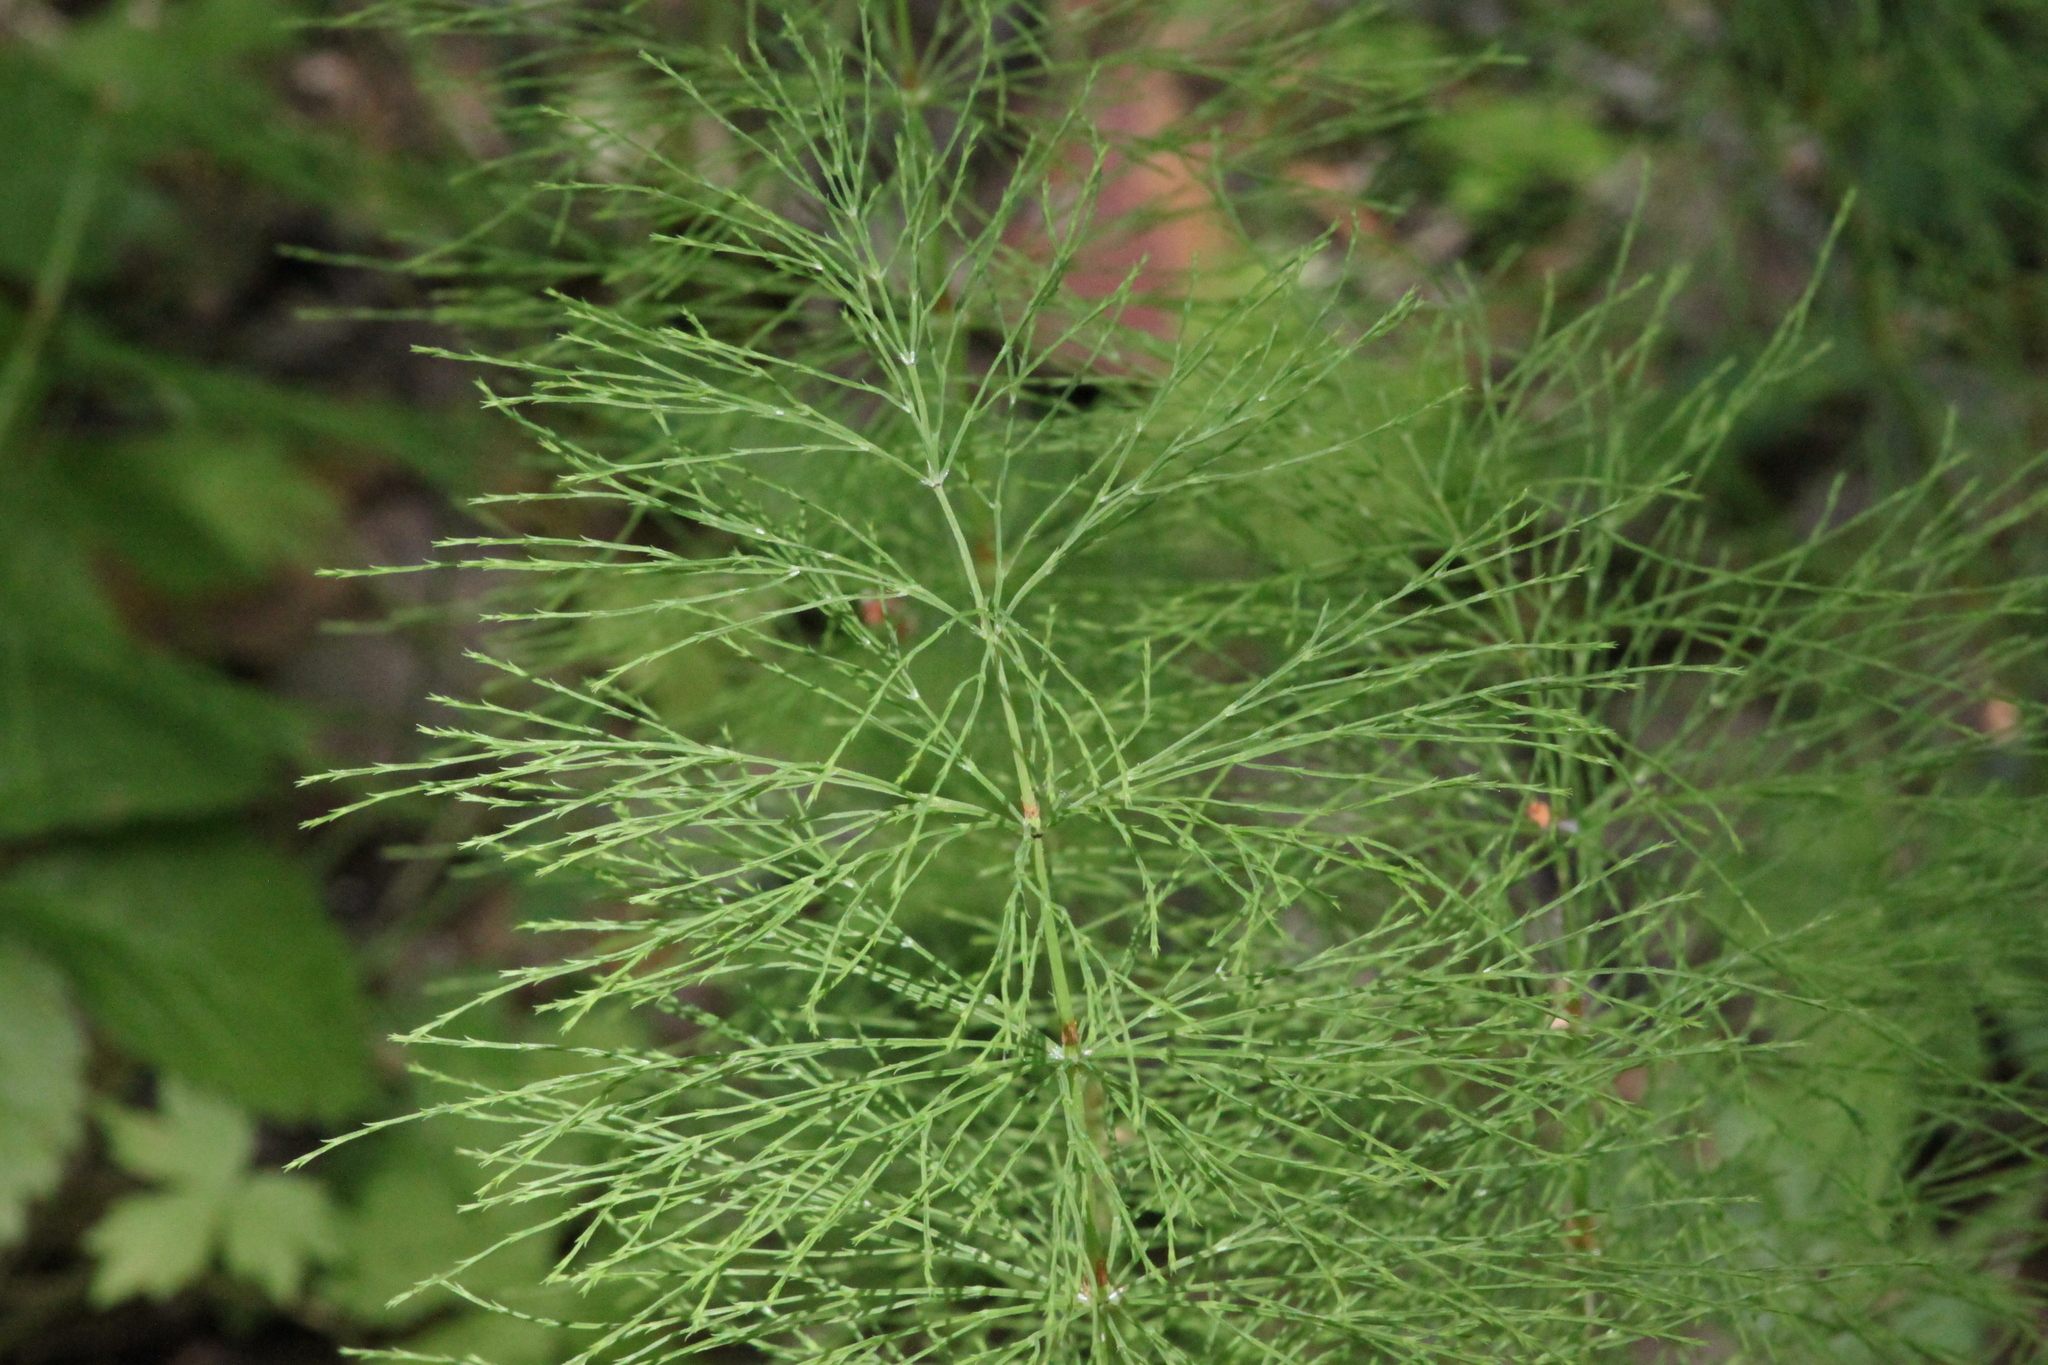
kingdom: Plantae
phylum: Tracheophyta
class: Polypodiopsida
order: Equisetales
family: Equisetaceae
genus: Equisetum
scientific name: Equisetum sylvaticum
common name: Wood horsetail
